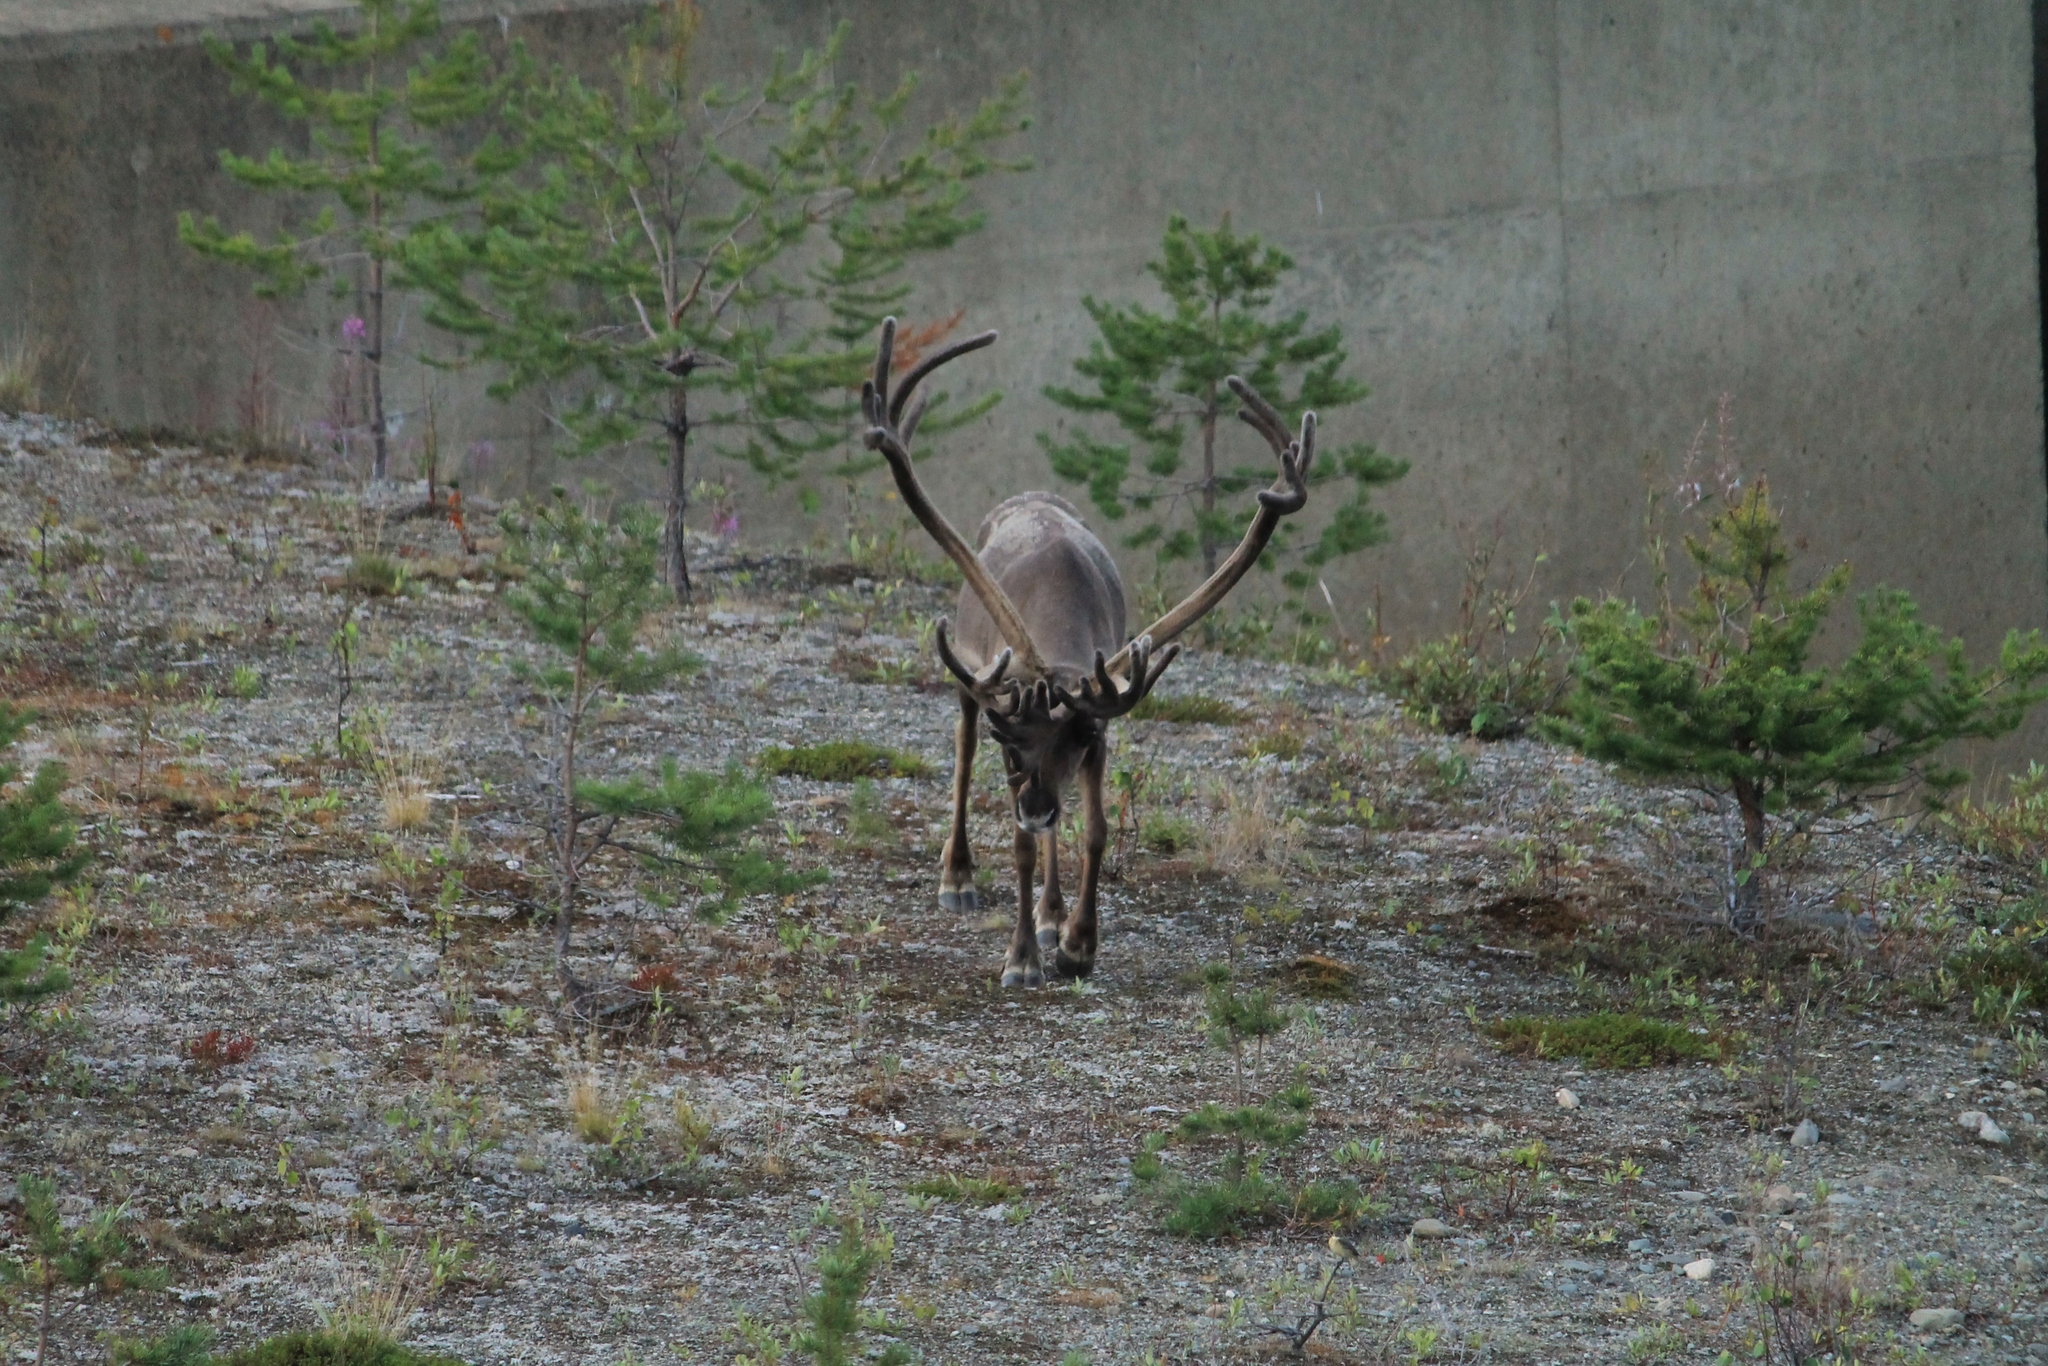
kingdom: Animalia
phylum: Chordata
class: Mammalia
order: Artiodactyla
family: Cervidae
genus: Rangifer
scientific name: Rangifer tarandus
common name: Reindeer
